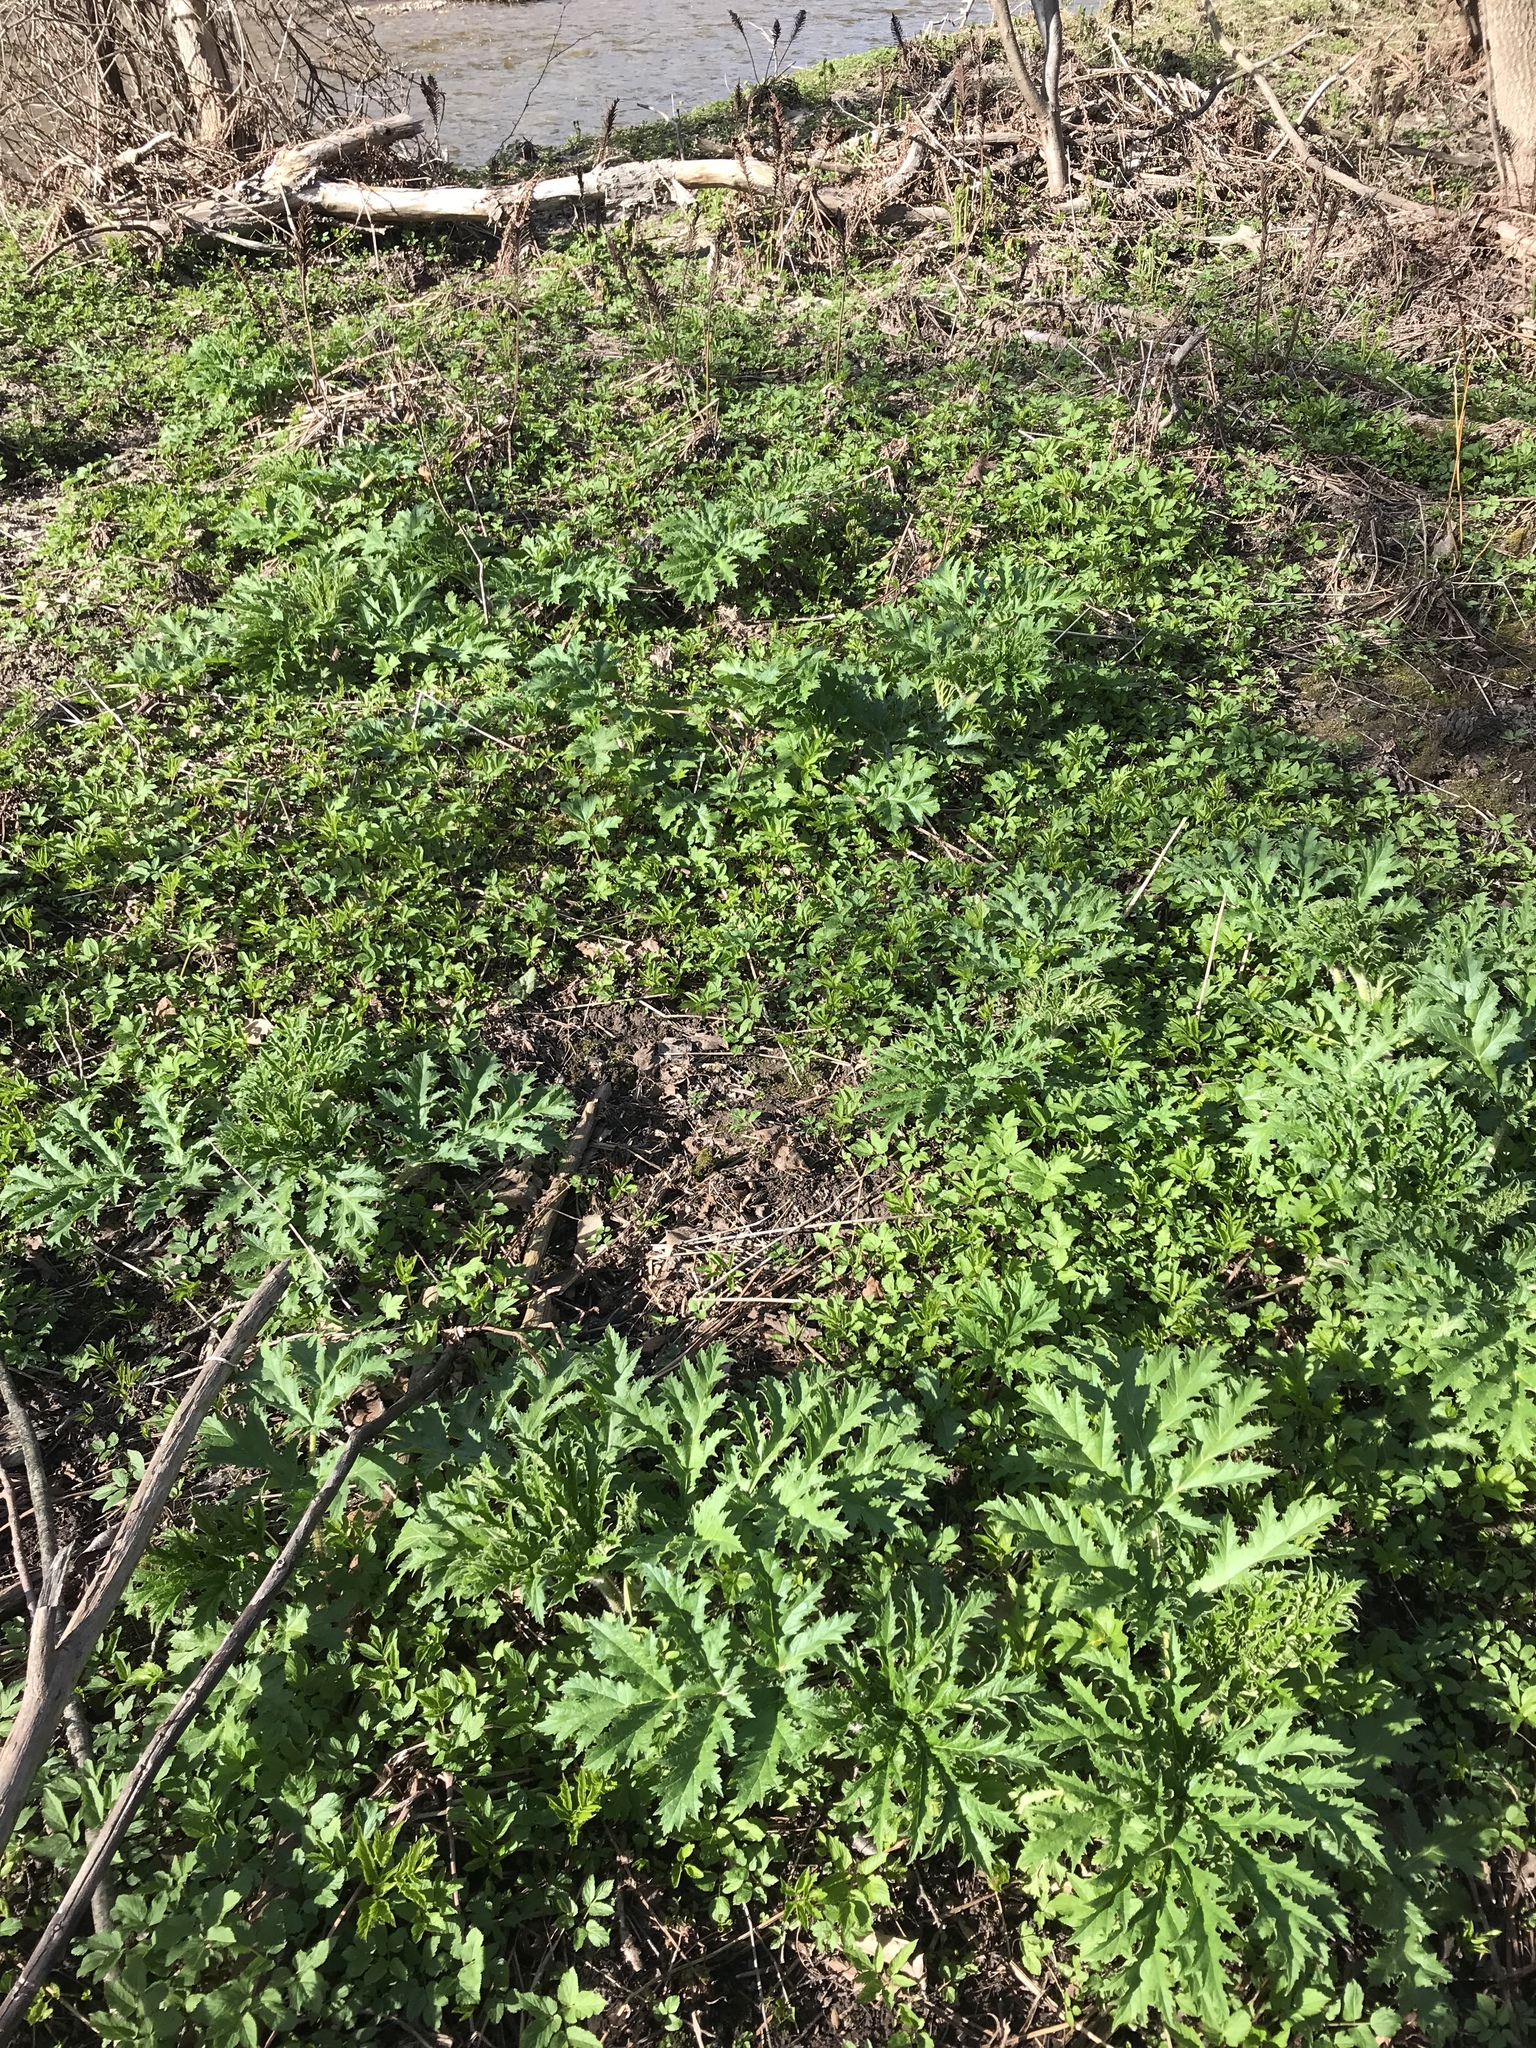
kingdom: Plantae
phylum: Tracheophyta
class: Magnoliopsida
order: Apiales
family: Apiaceae
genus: Heracleum
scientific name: Heracleum mantegazzianum
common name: Giant hogweed
